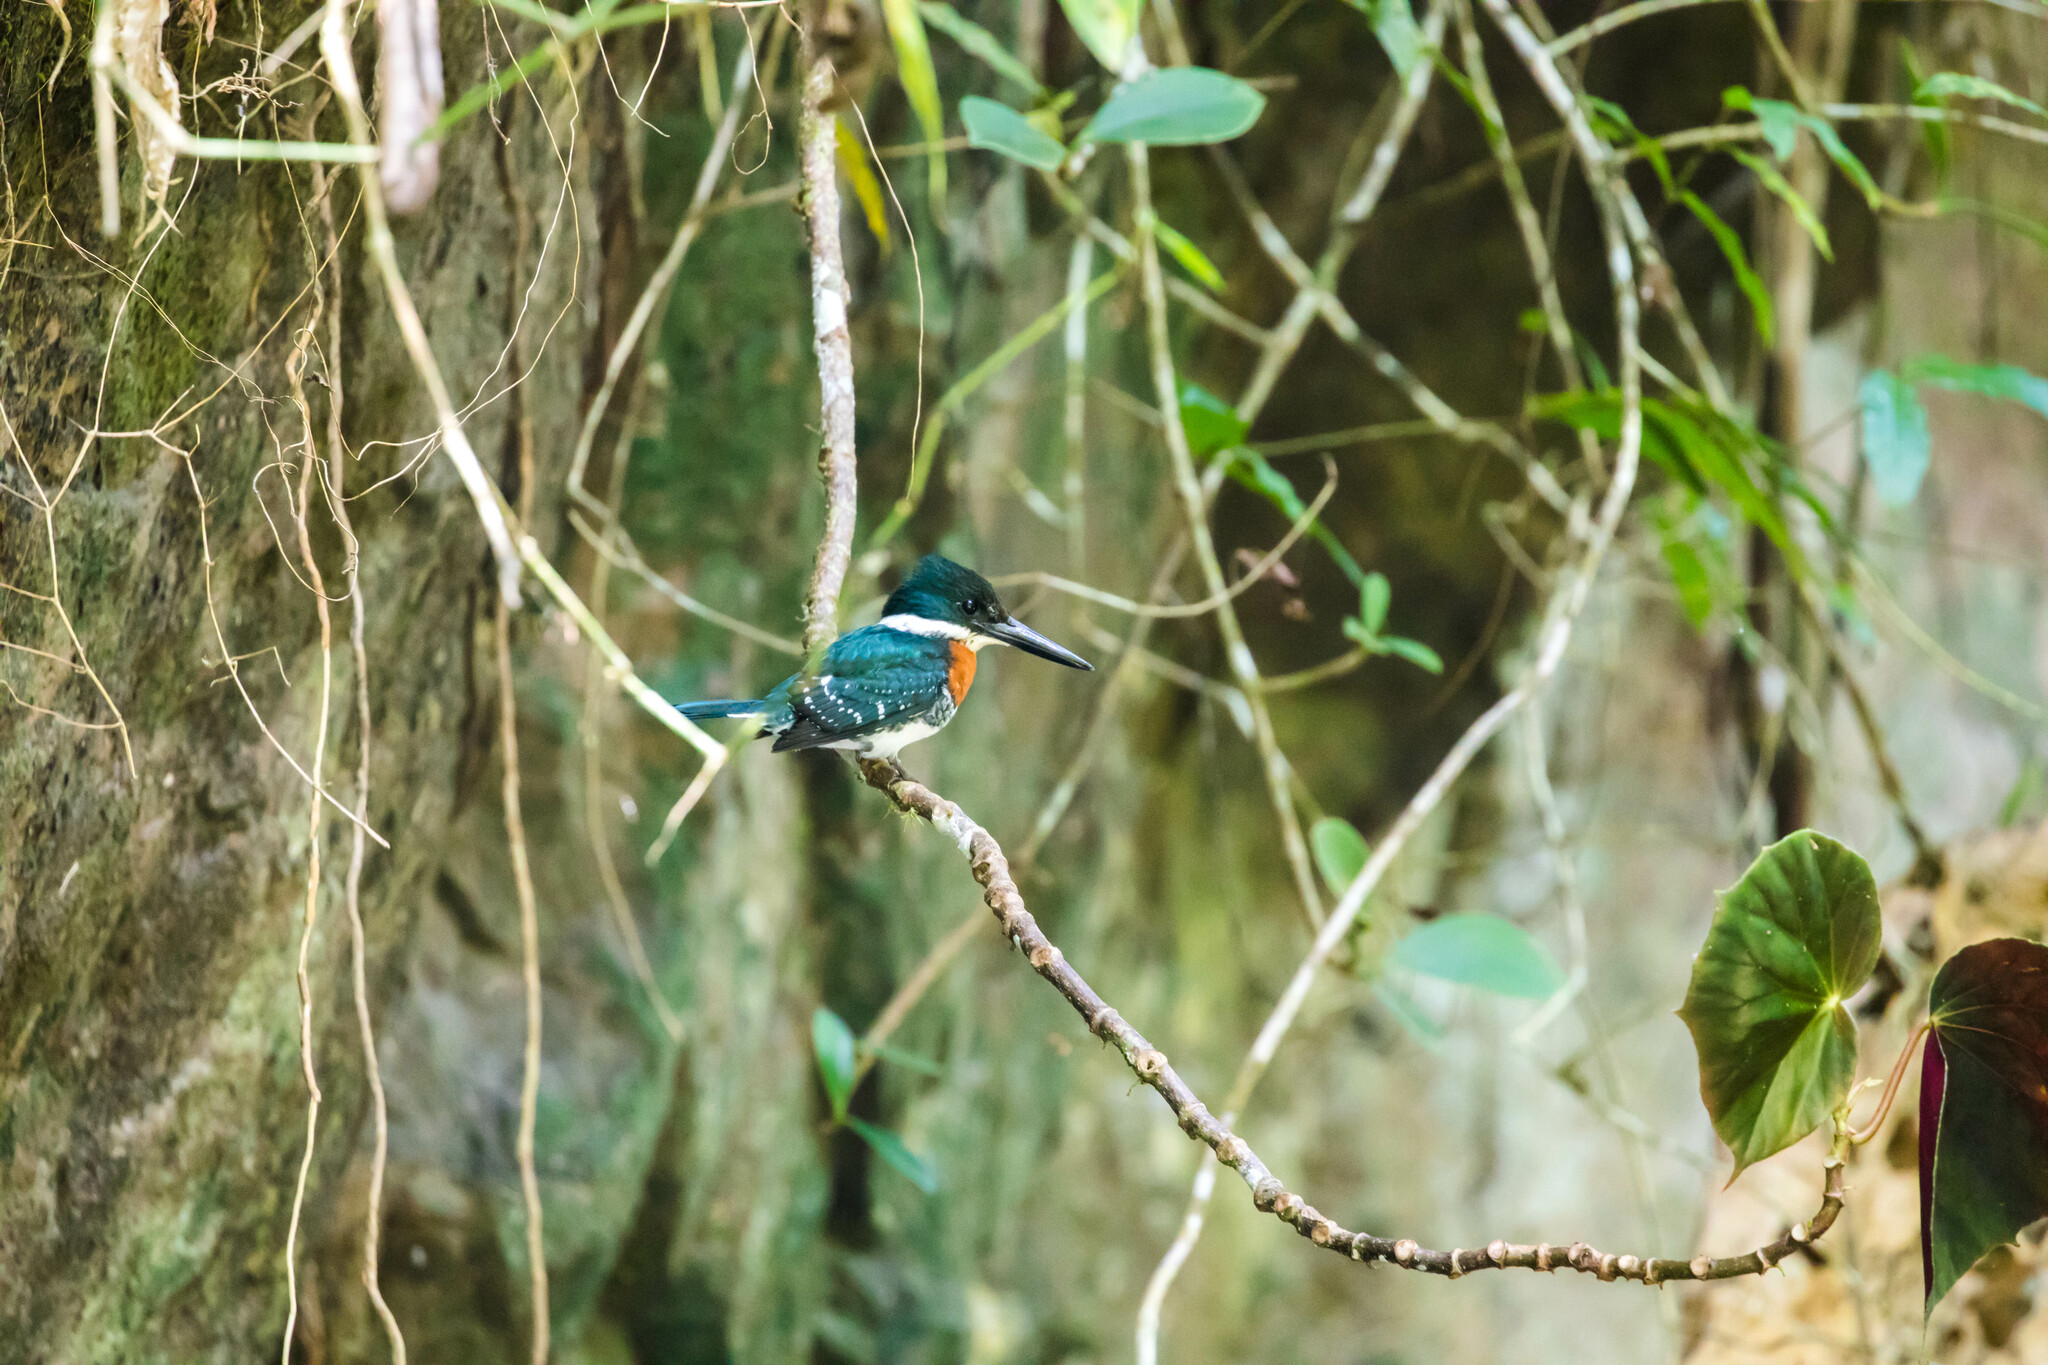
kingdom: Animalia
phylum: Chordata
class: Aves
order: Coraciiformes
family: Alcedinidae
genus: Chloroceryle
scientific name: Chloroceryle americana
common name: Green kingfisher
